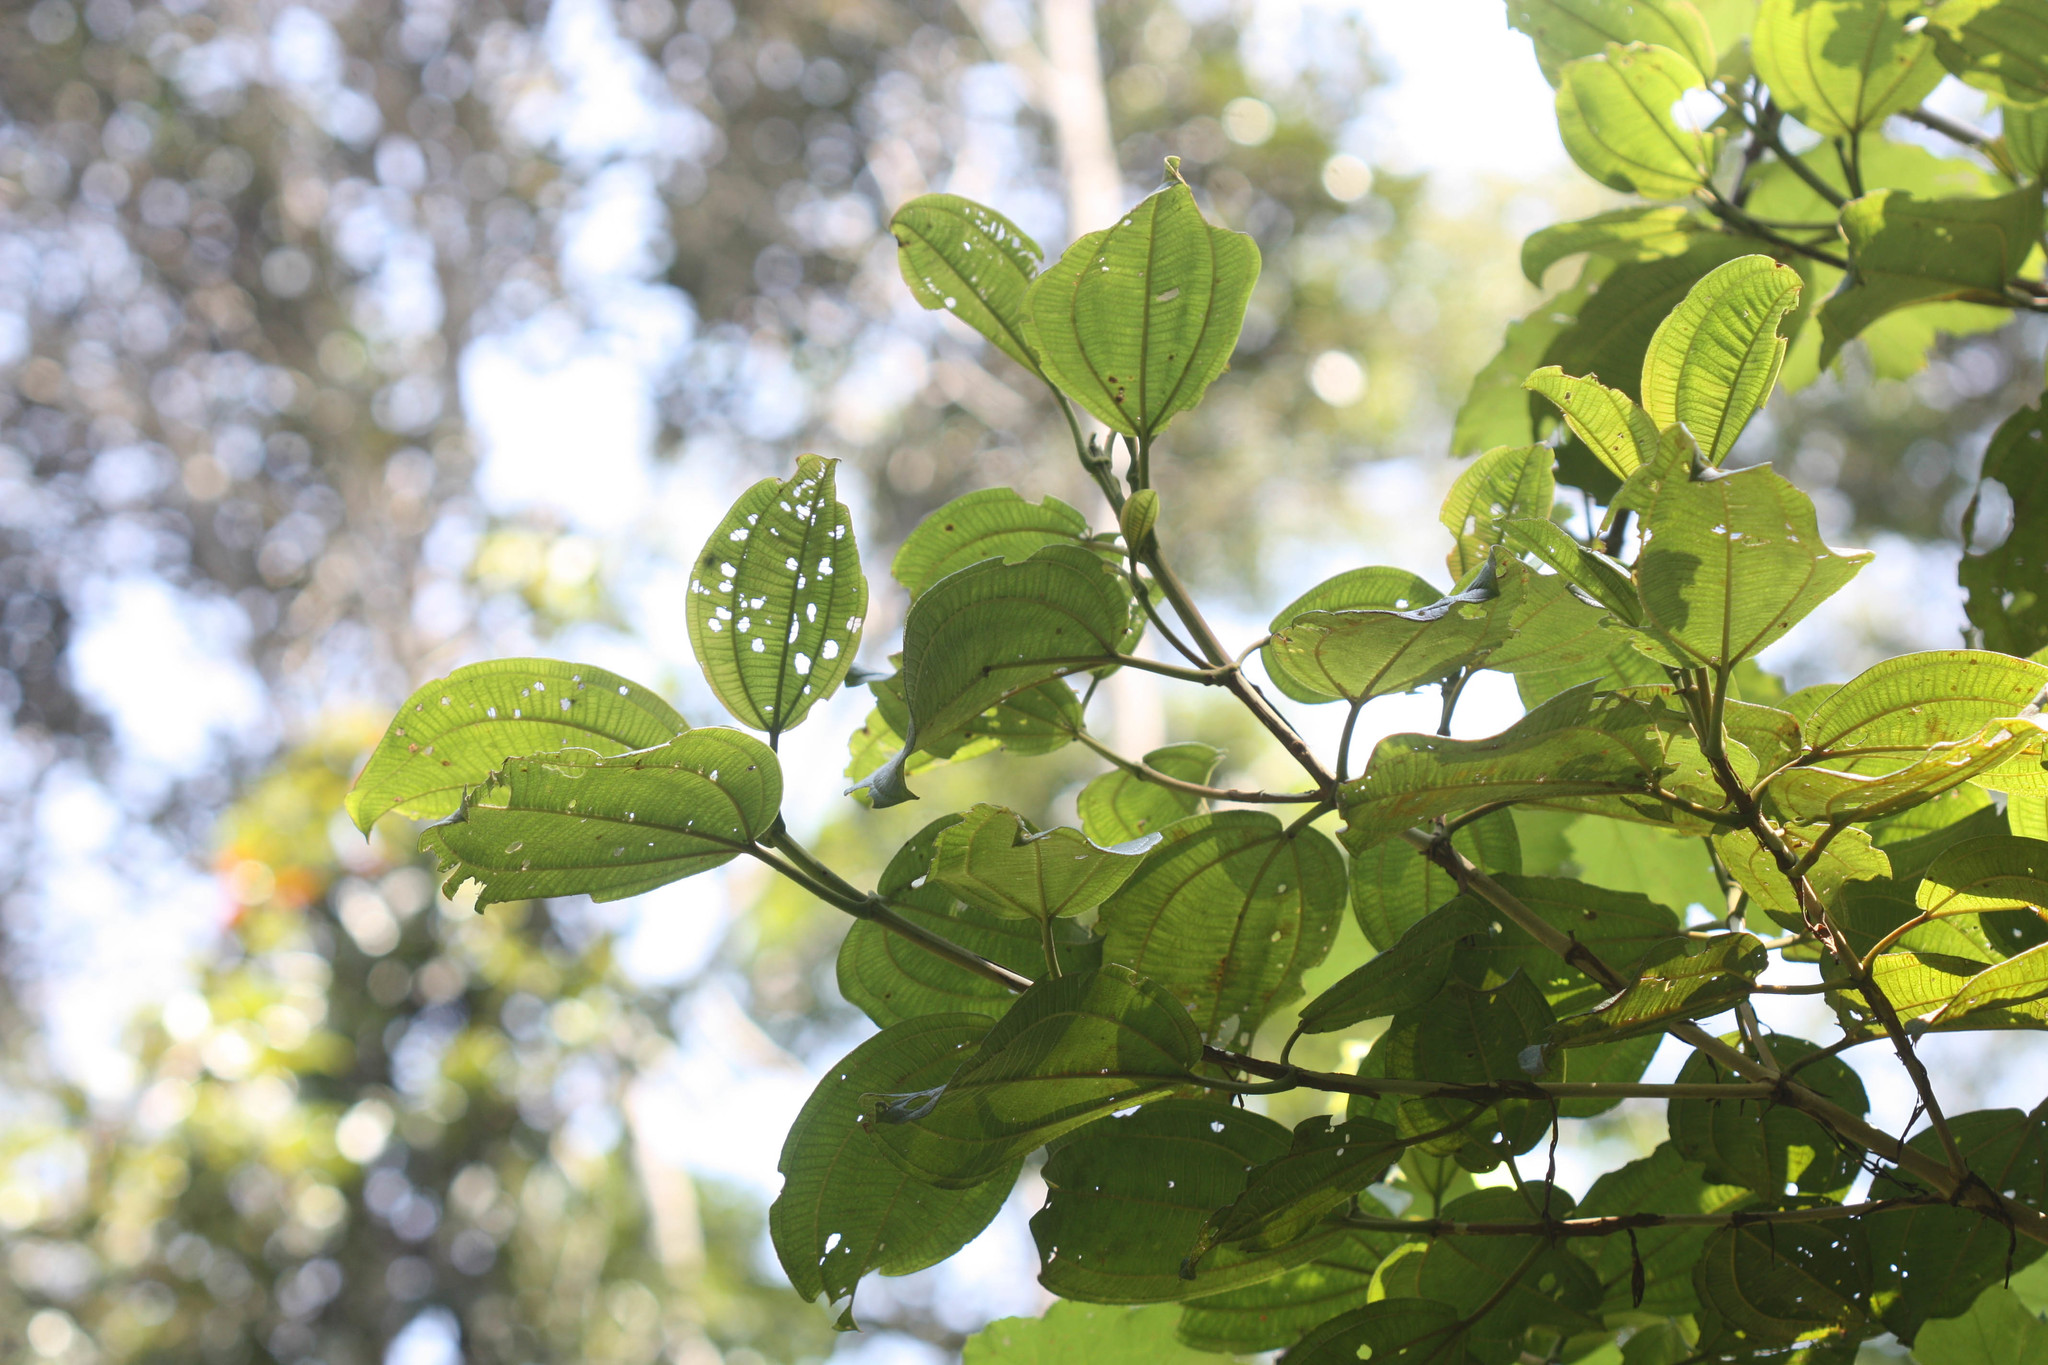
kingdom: Plantae
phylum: Tracheophyta
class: Magnoliopsida
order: Myrtales
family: Melastomataceae
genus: Dichaetanthera
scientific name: Dichaetanthera cordifolia
